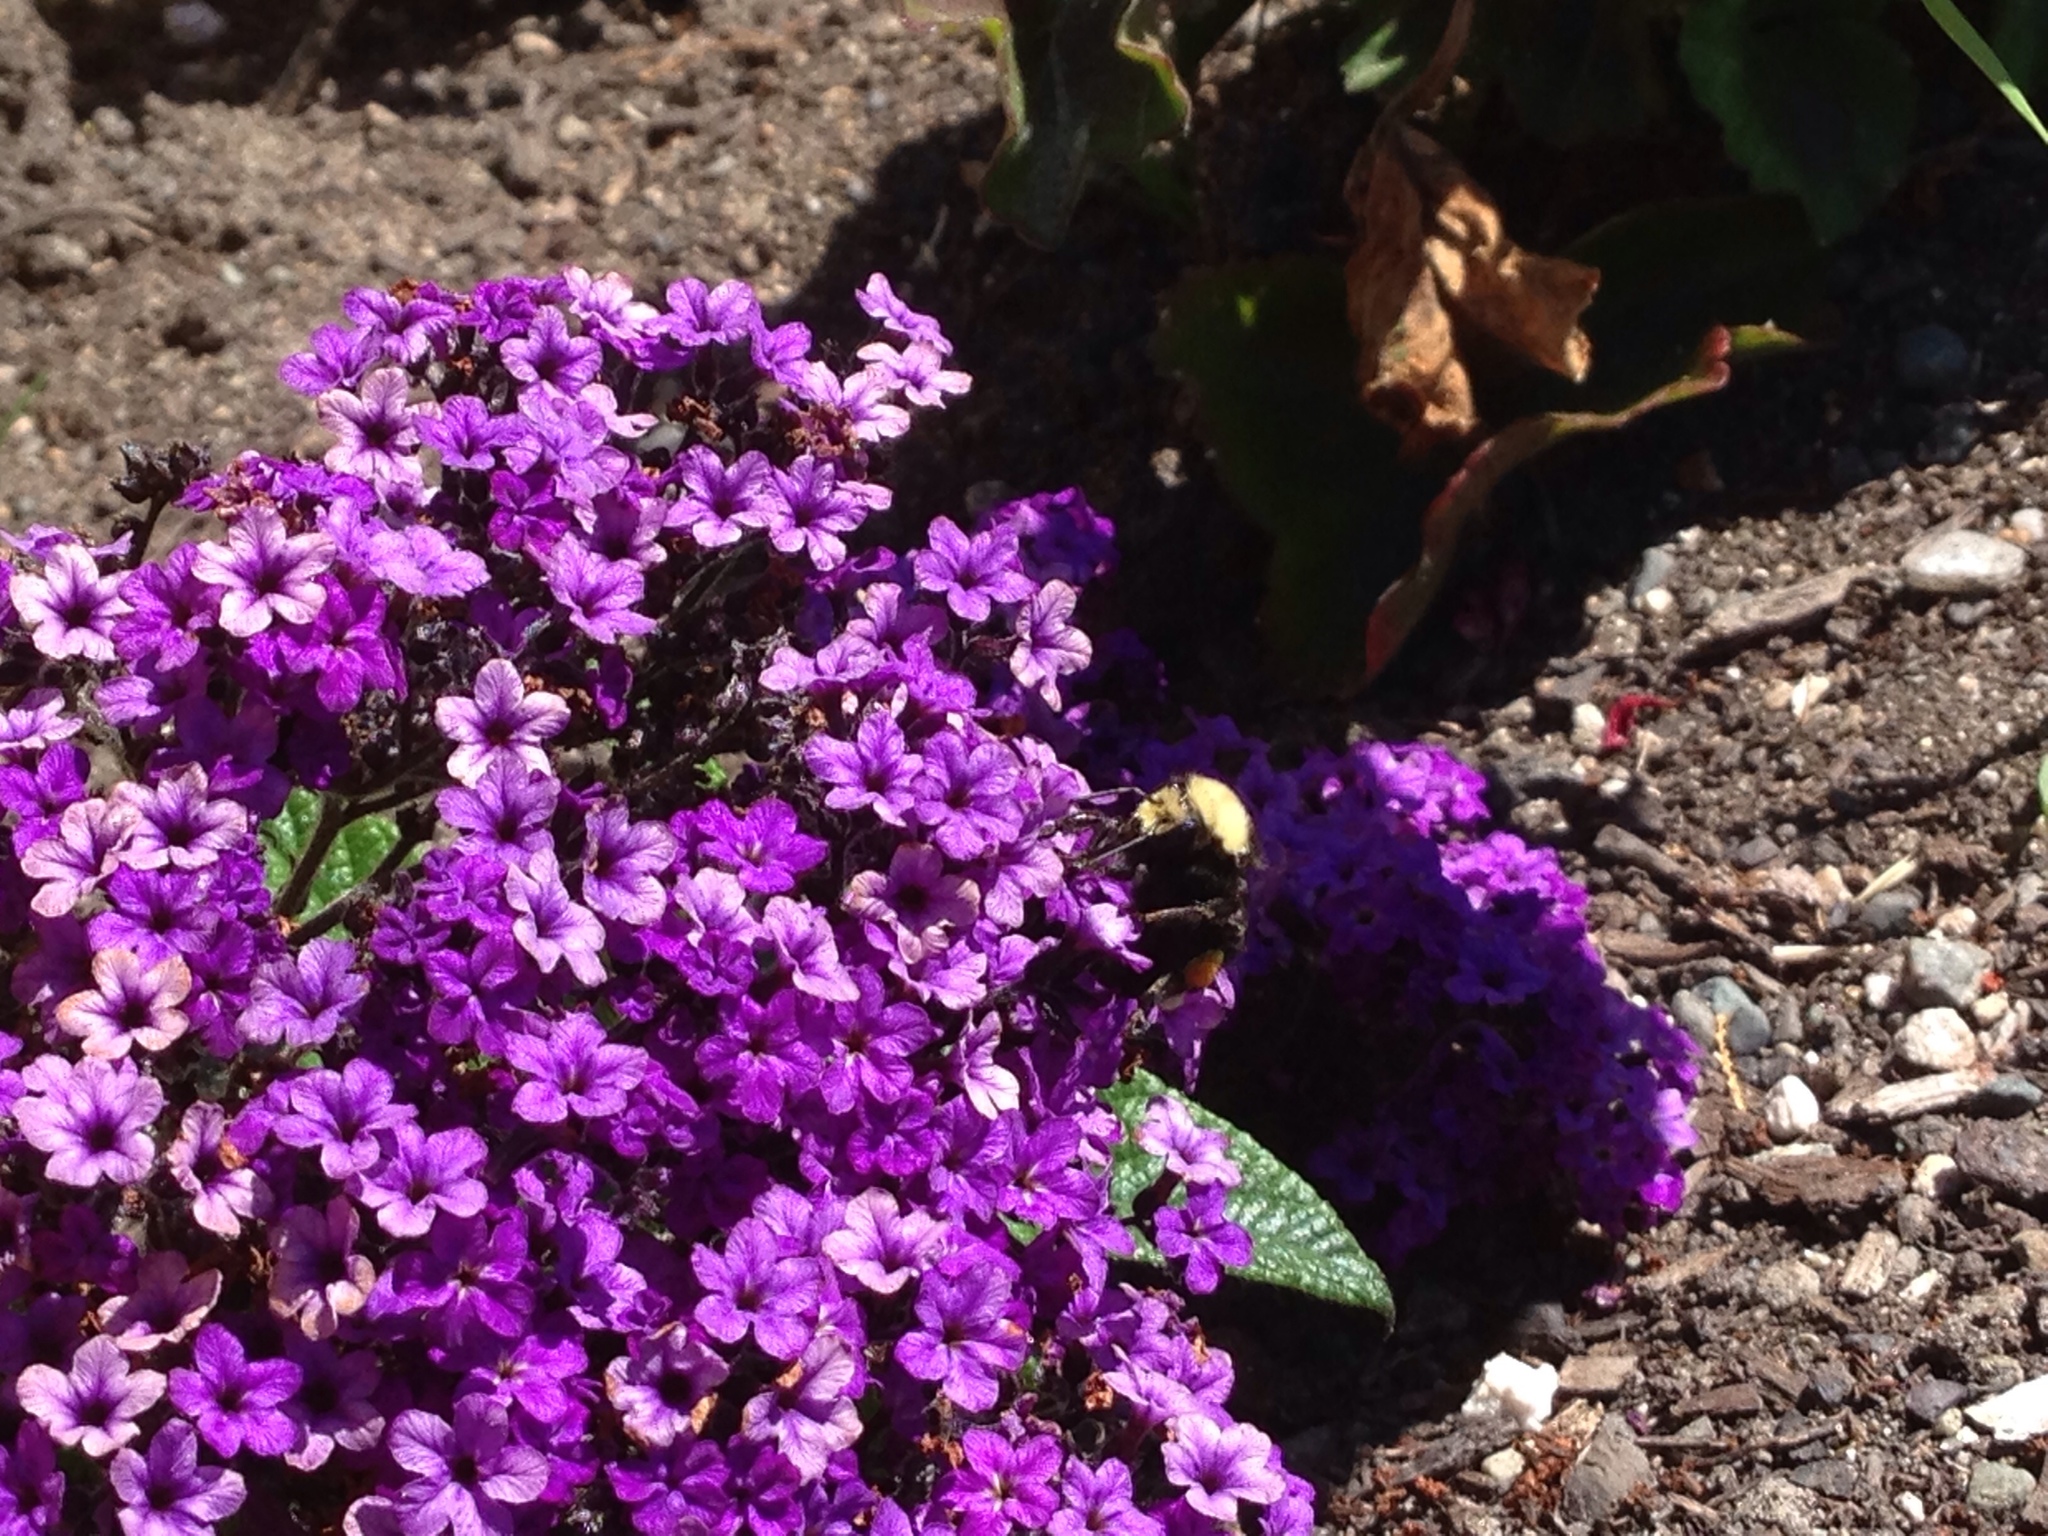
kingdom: Animalia
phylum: Arthropoda
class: Insecta
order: Hymenoptera
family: Apidae
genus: Bombus
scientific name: Bombus vosnesenskii
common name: Vosnesensky bumble bee
